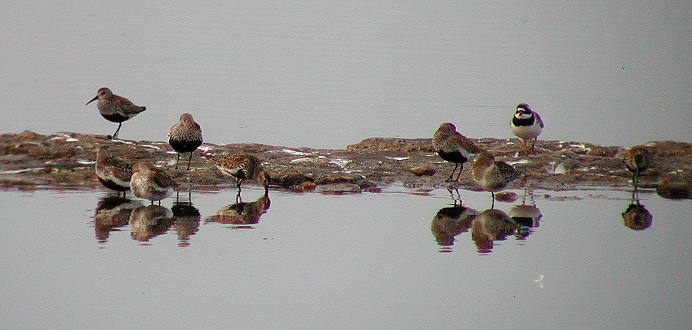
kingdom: Animalia
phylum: Chordata
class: Aves
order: Charadriiformes
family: Scolopacidae
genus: Calidris
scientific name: Calidris alpina
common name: Dunlin
